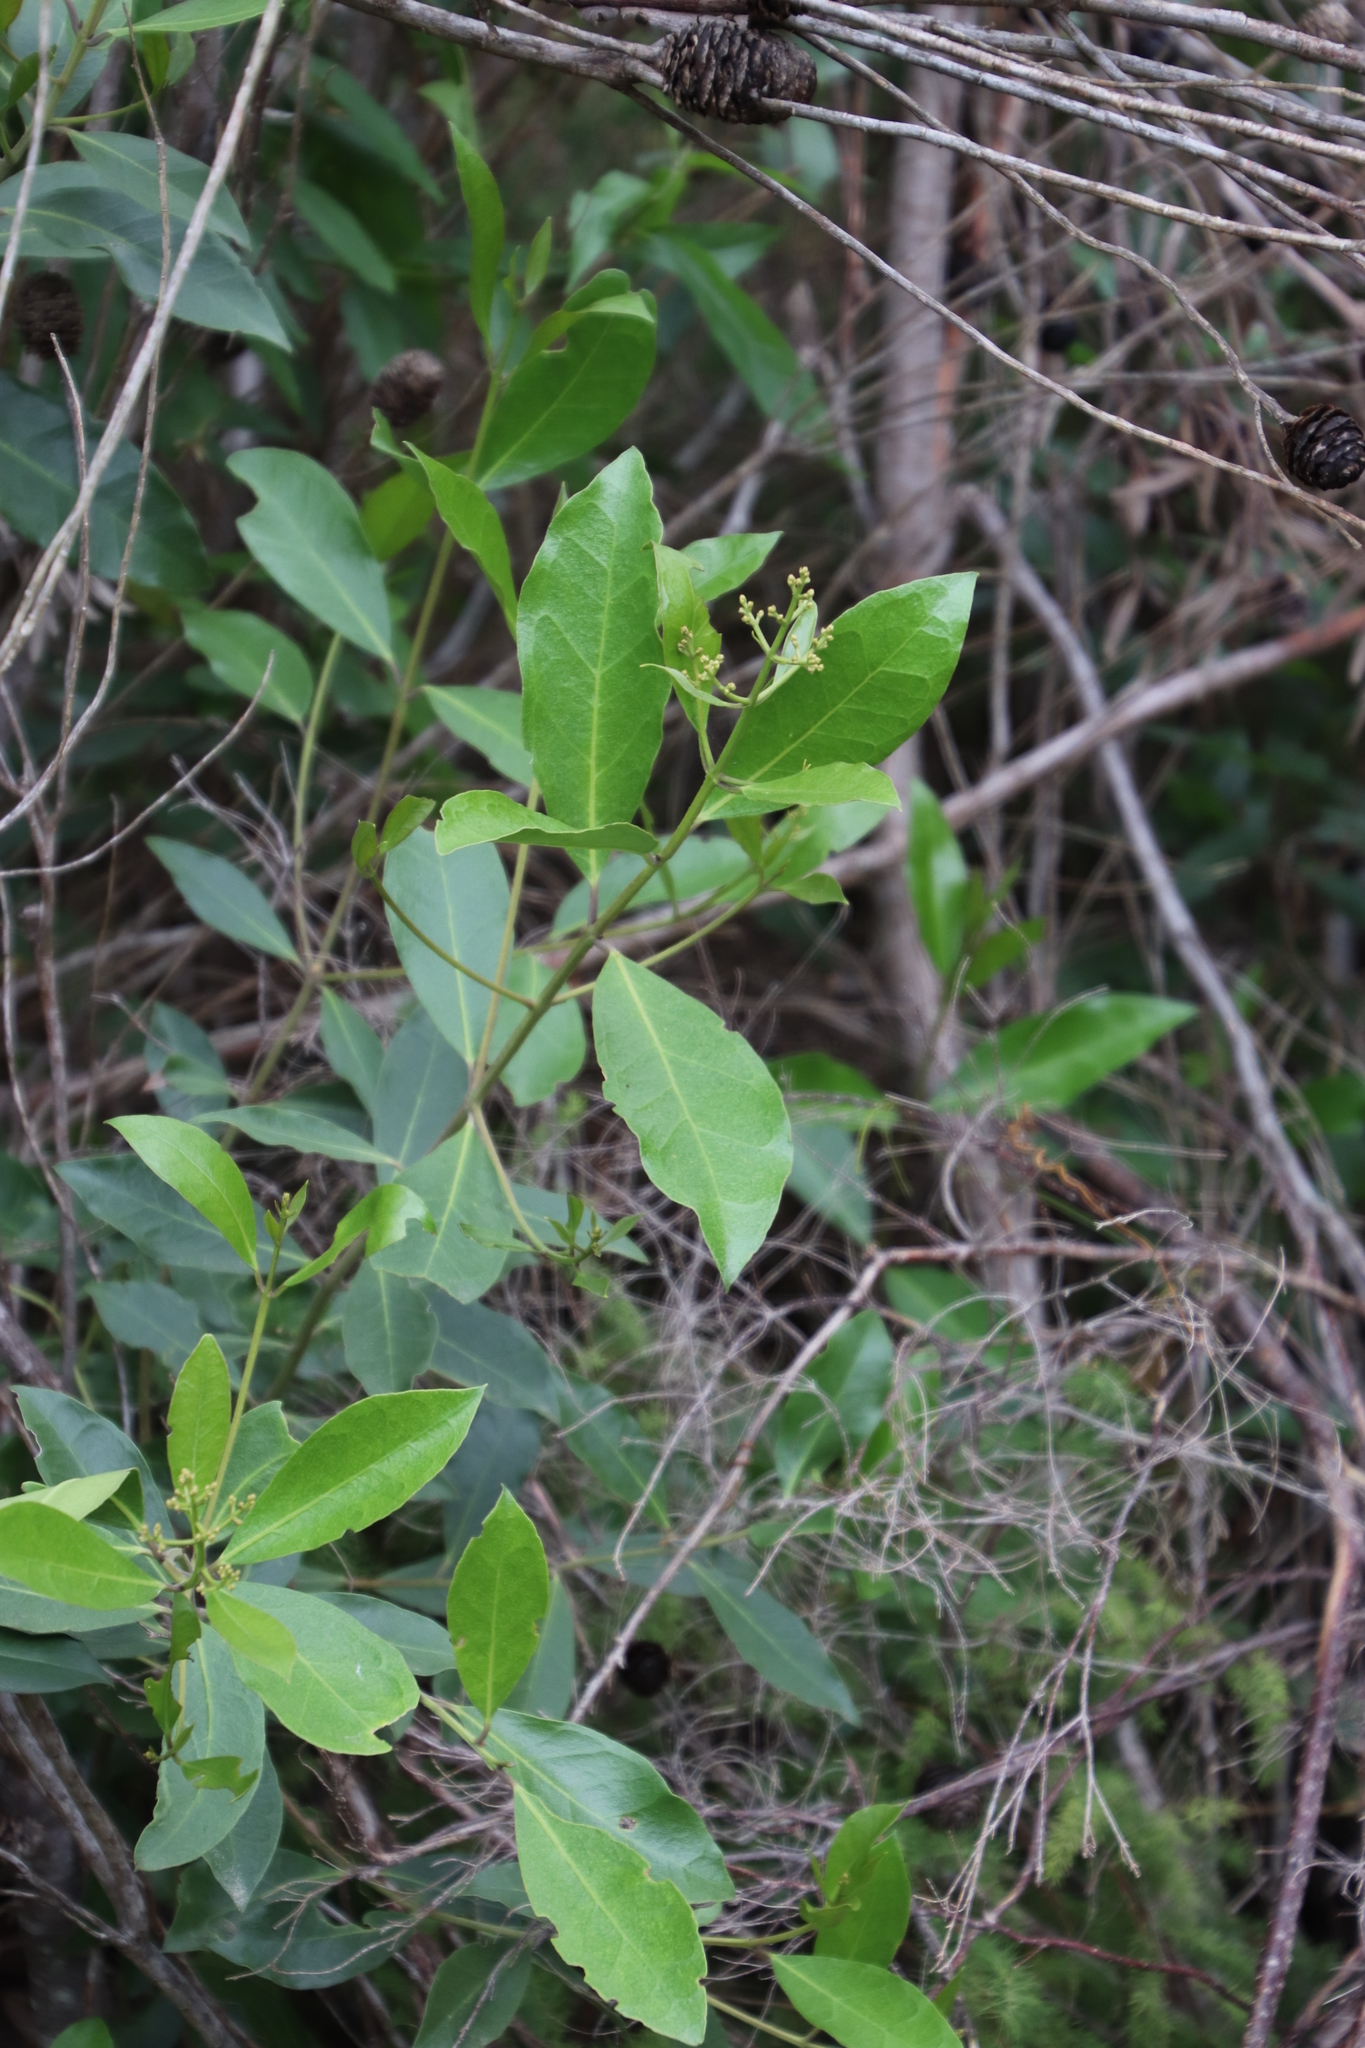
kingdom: Plantae
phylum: Tracheophyta
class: Magnoliopsida
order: Lamiales
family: Oleaceae
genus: Olea
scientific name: Olea capensis
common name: Black ironwood
